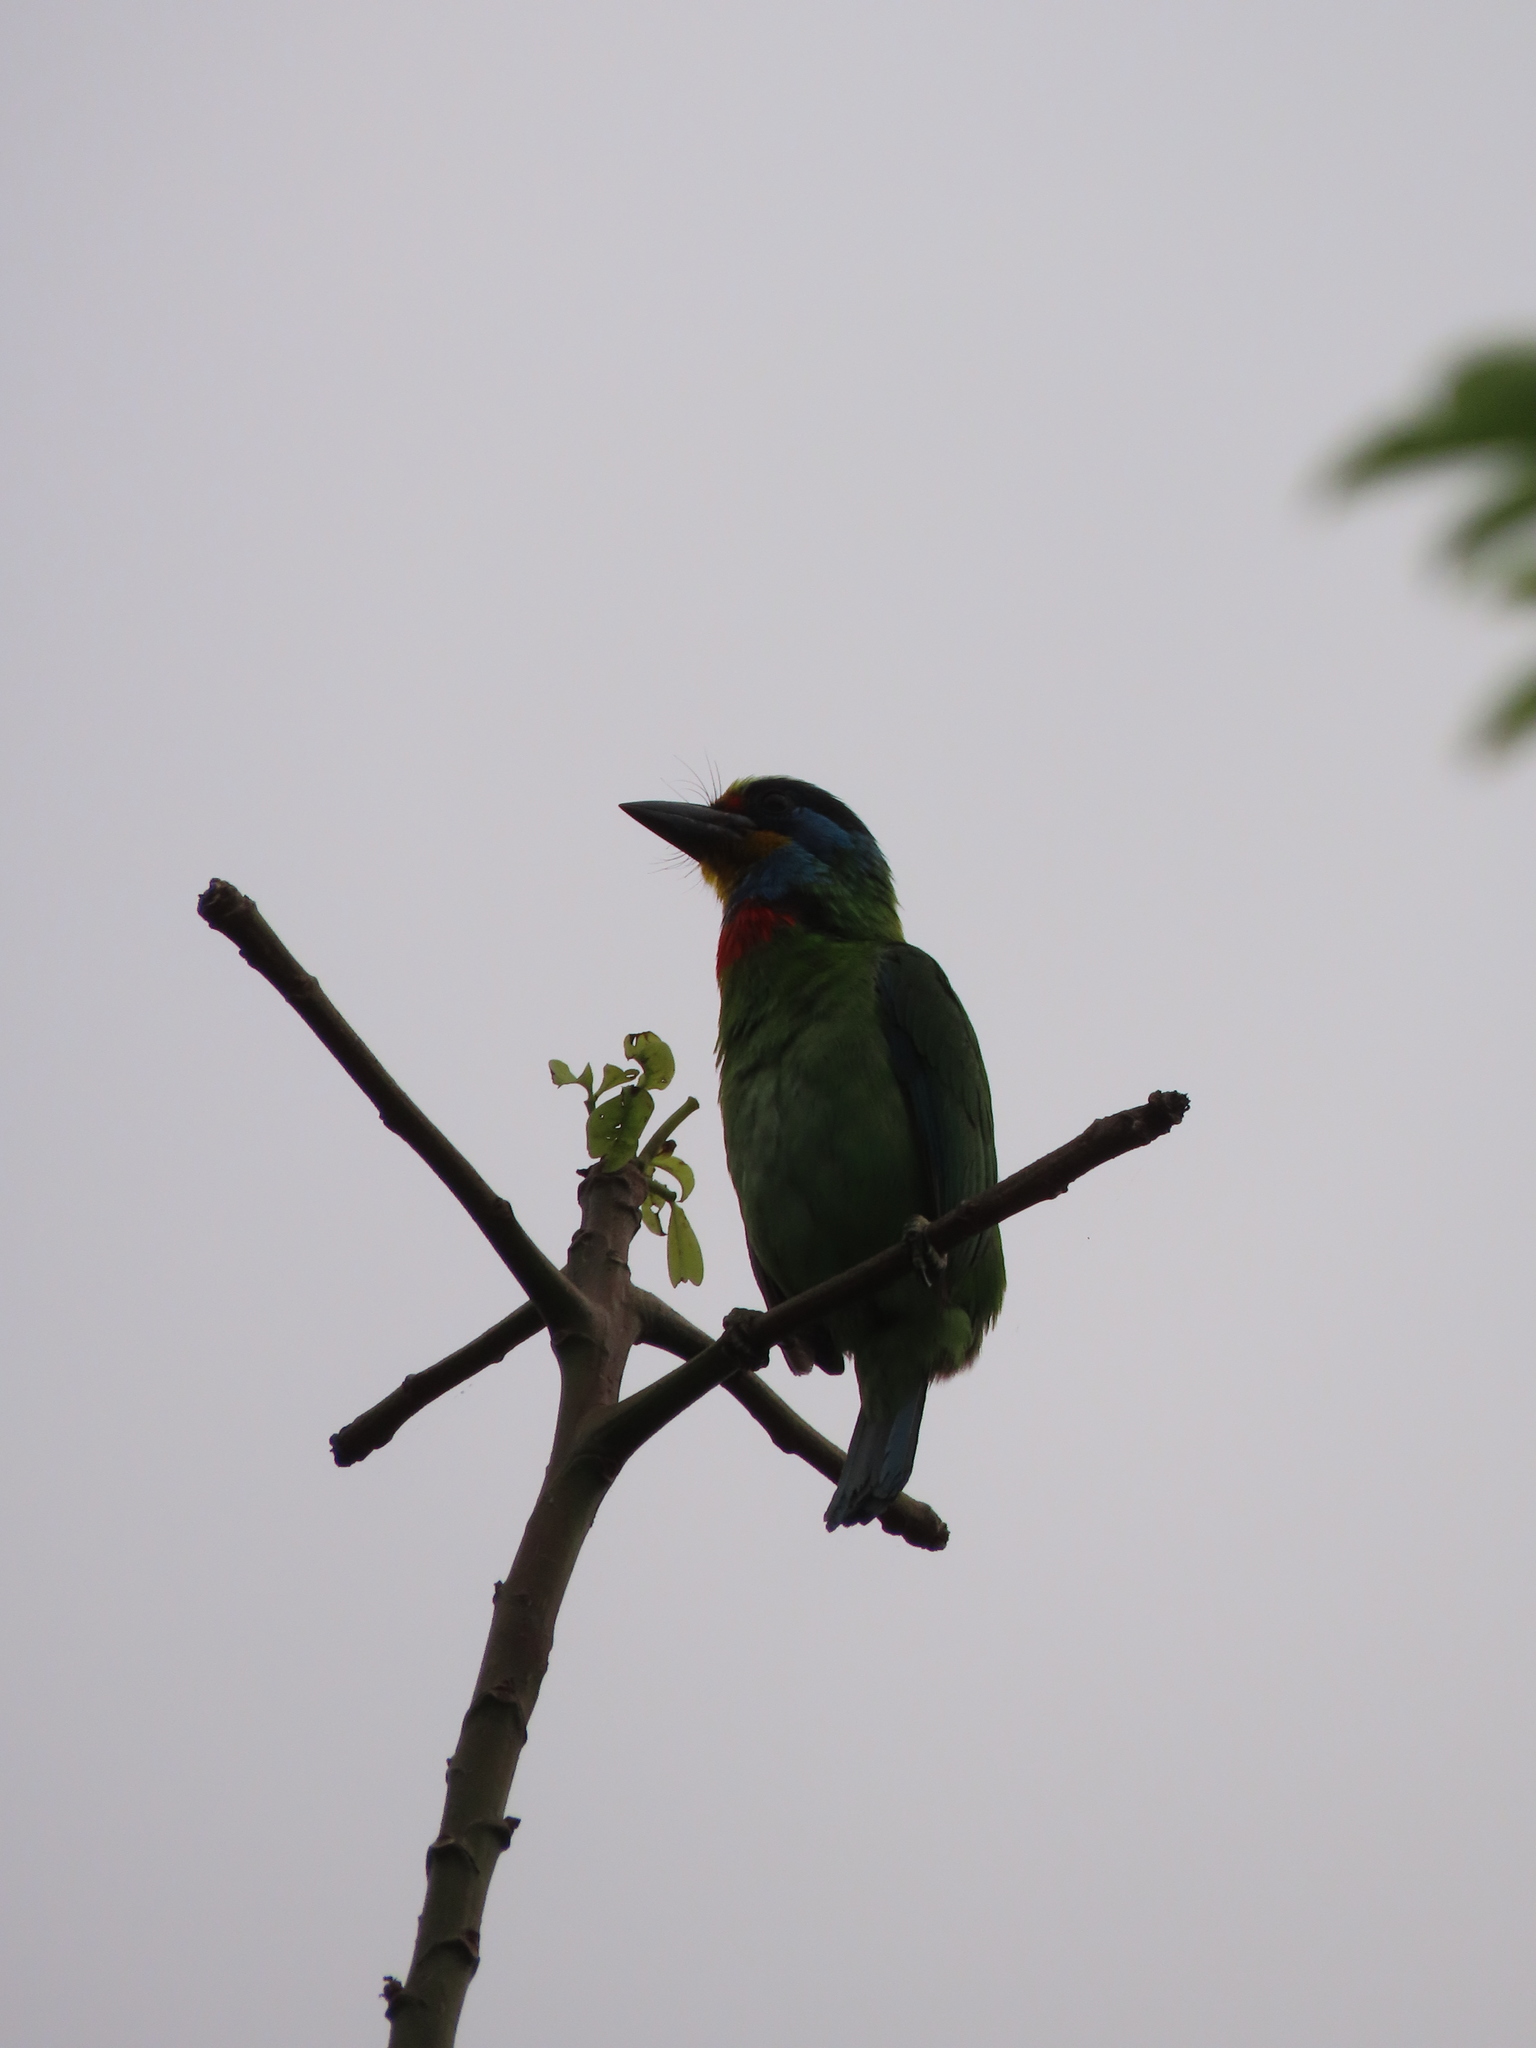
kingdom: Animalia
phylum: Chordata
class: Aves
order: Piciformes
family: Megalaimidae
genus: Psilopogon
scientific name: Psilopogon nuchalis
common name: Taiwan barbet
